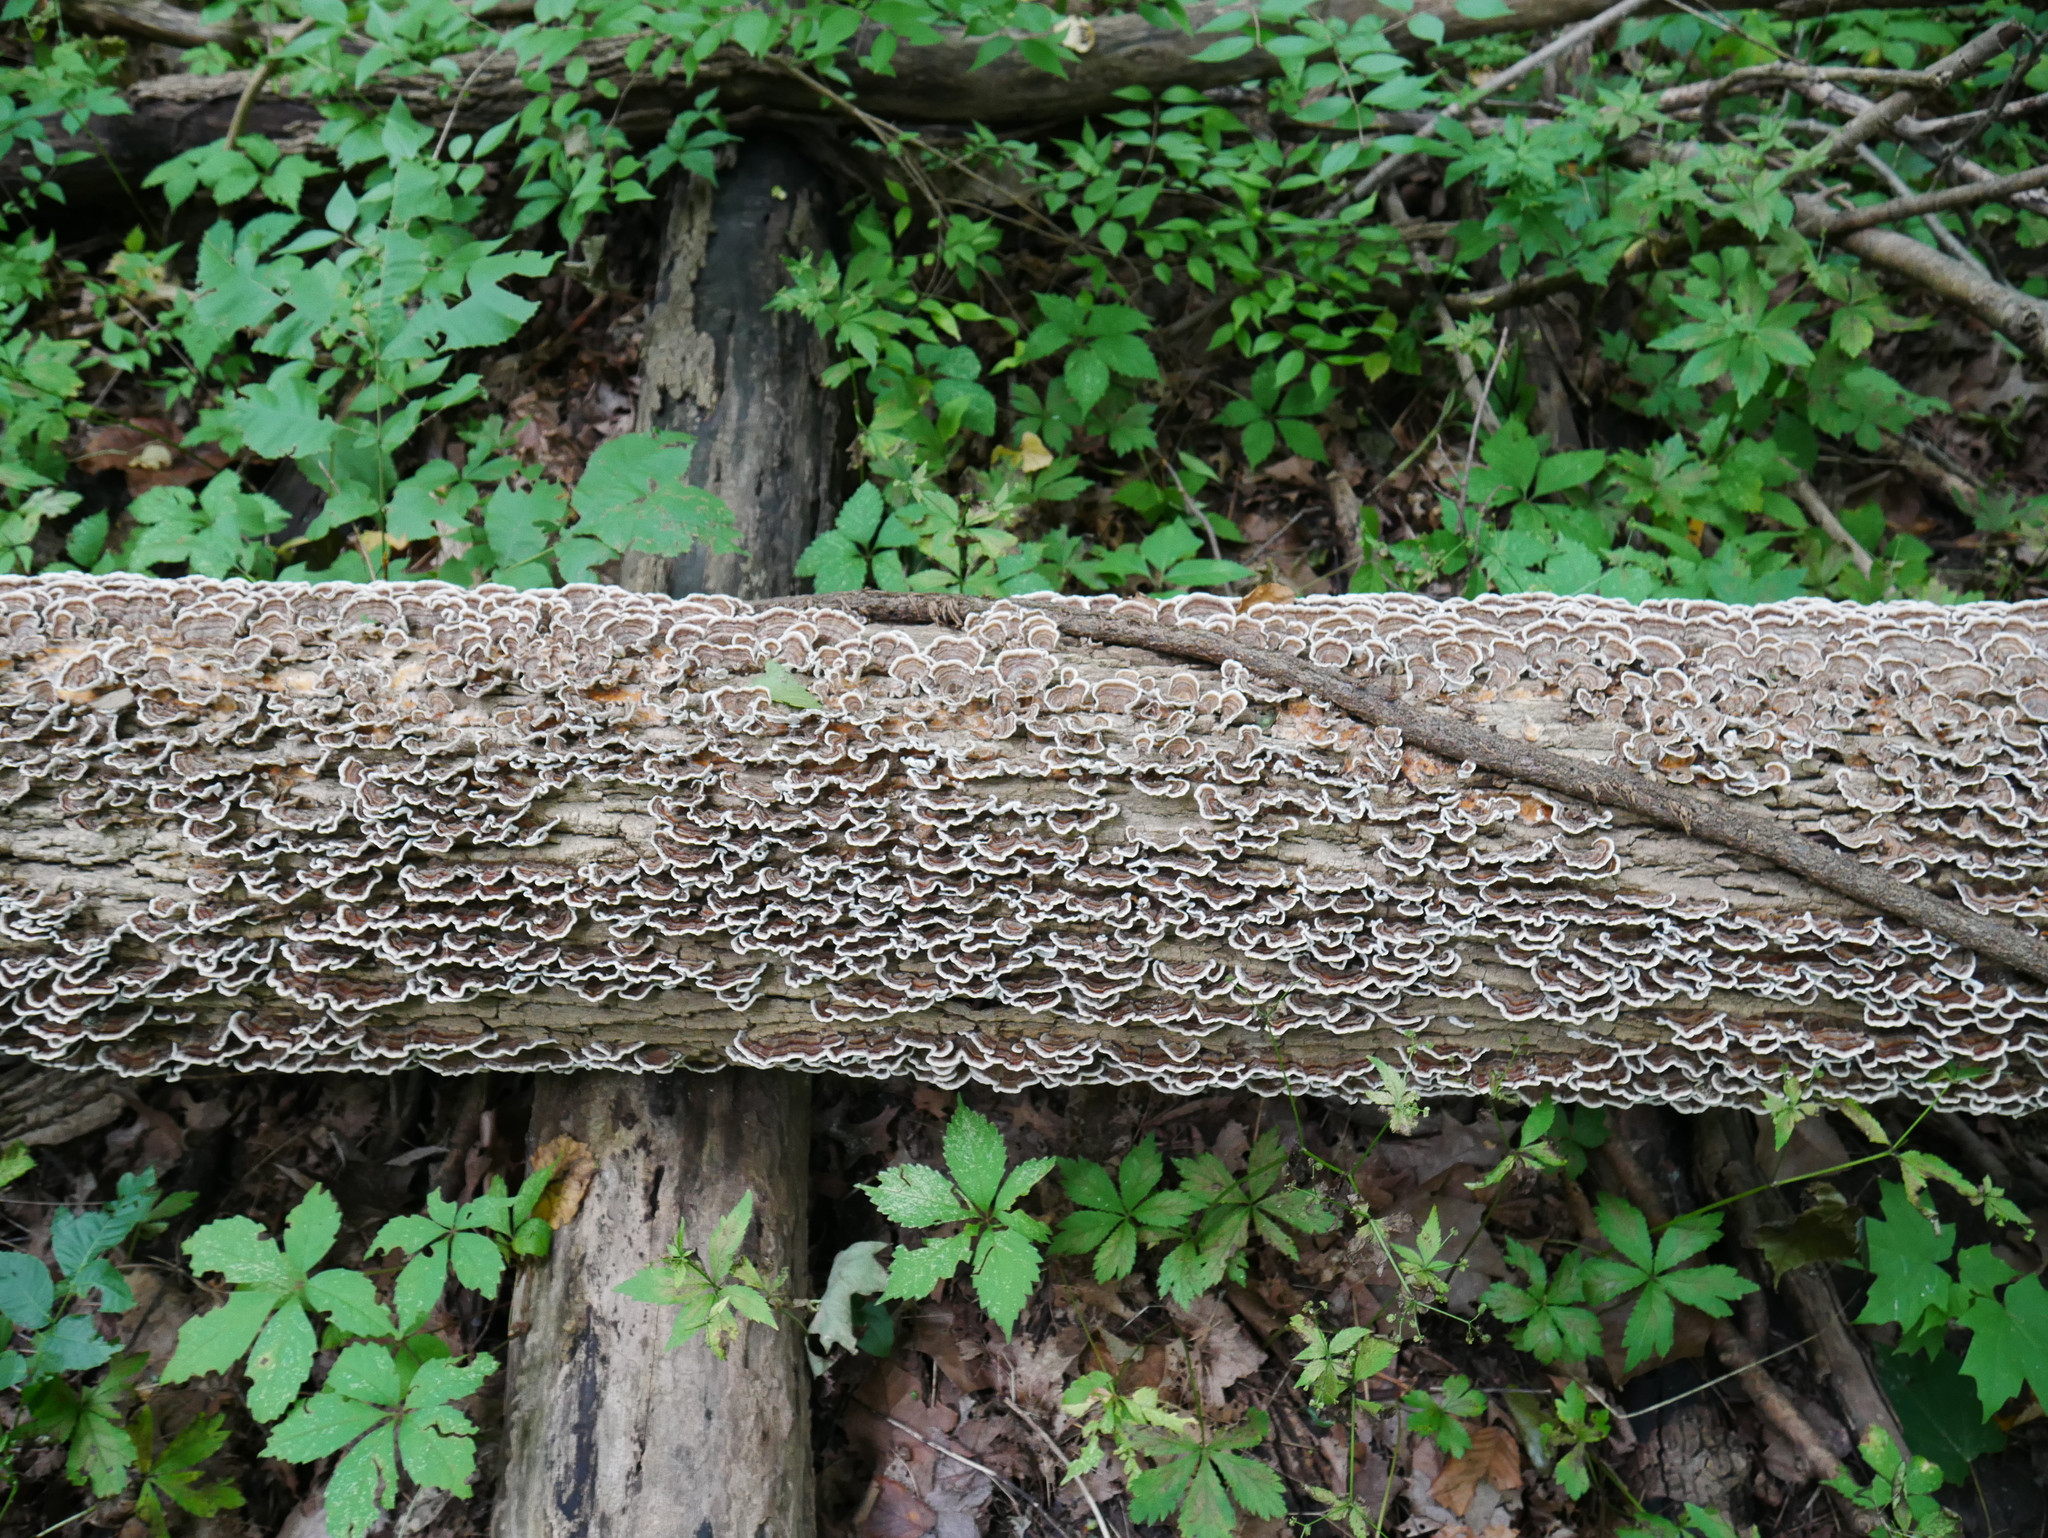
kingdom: Fungi
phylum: Basidiomycota
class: Agaricomycetes
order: Polyporales
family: Polyporaceae
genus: Trametes
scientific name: Trametes versicolor
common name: Turkeytail
